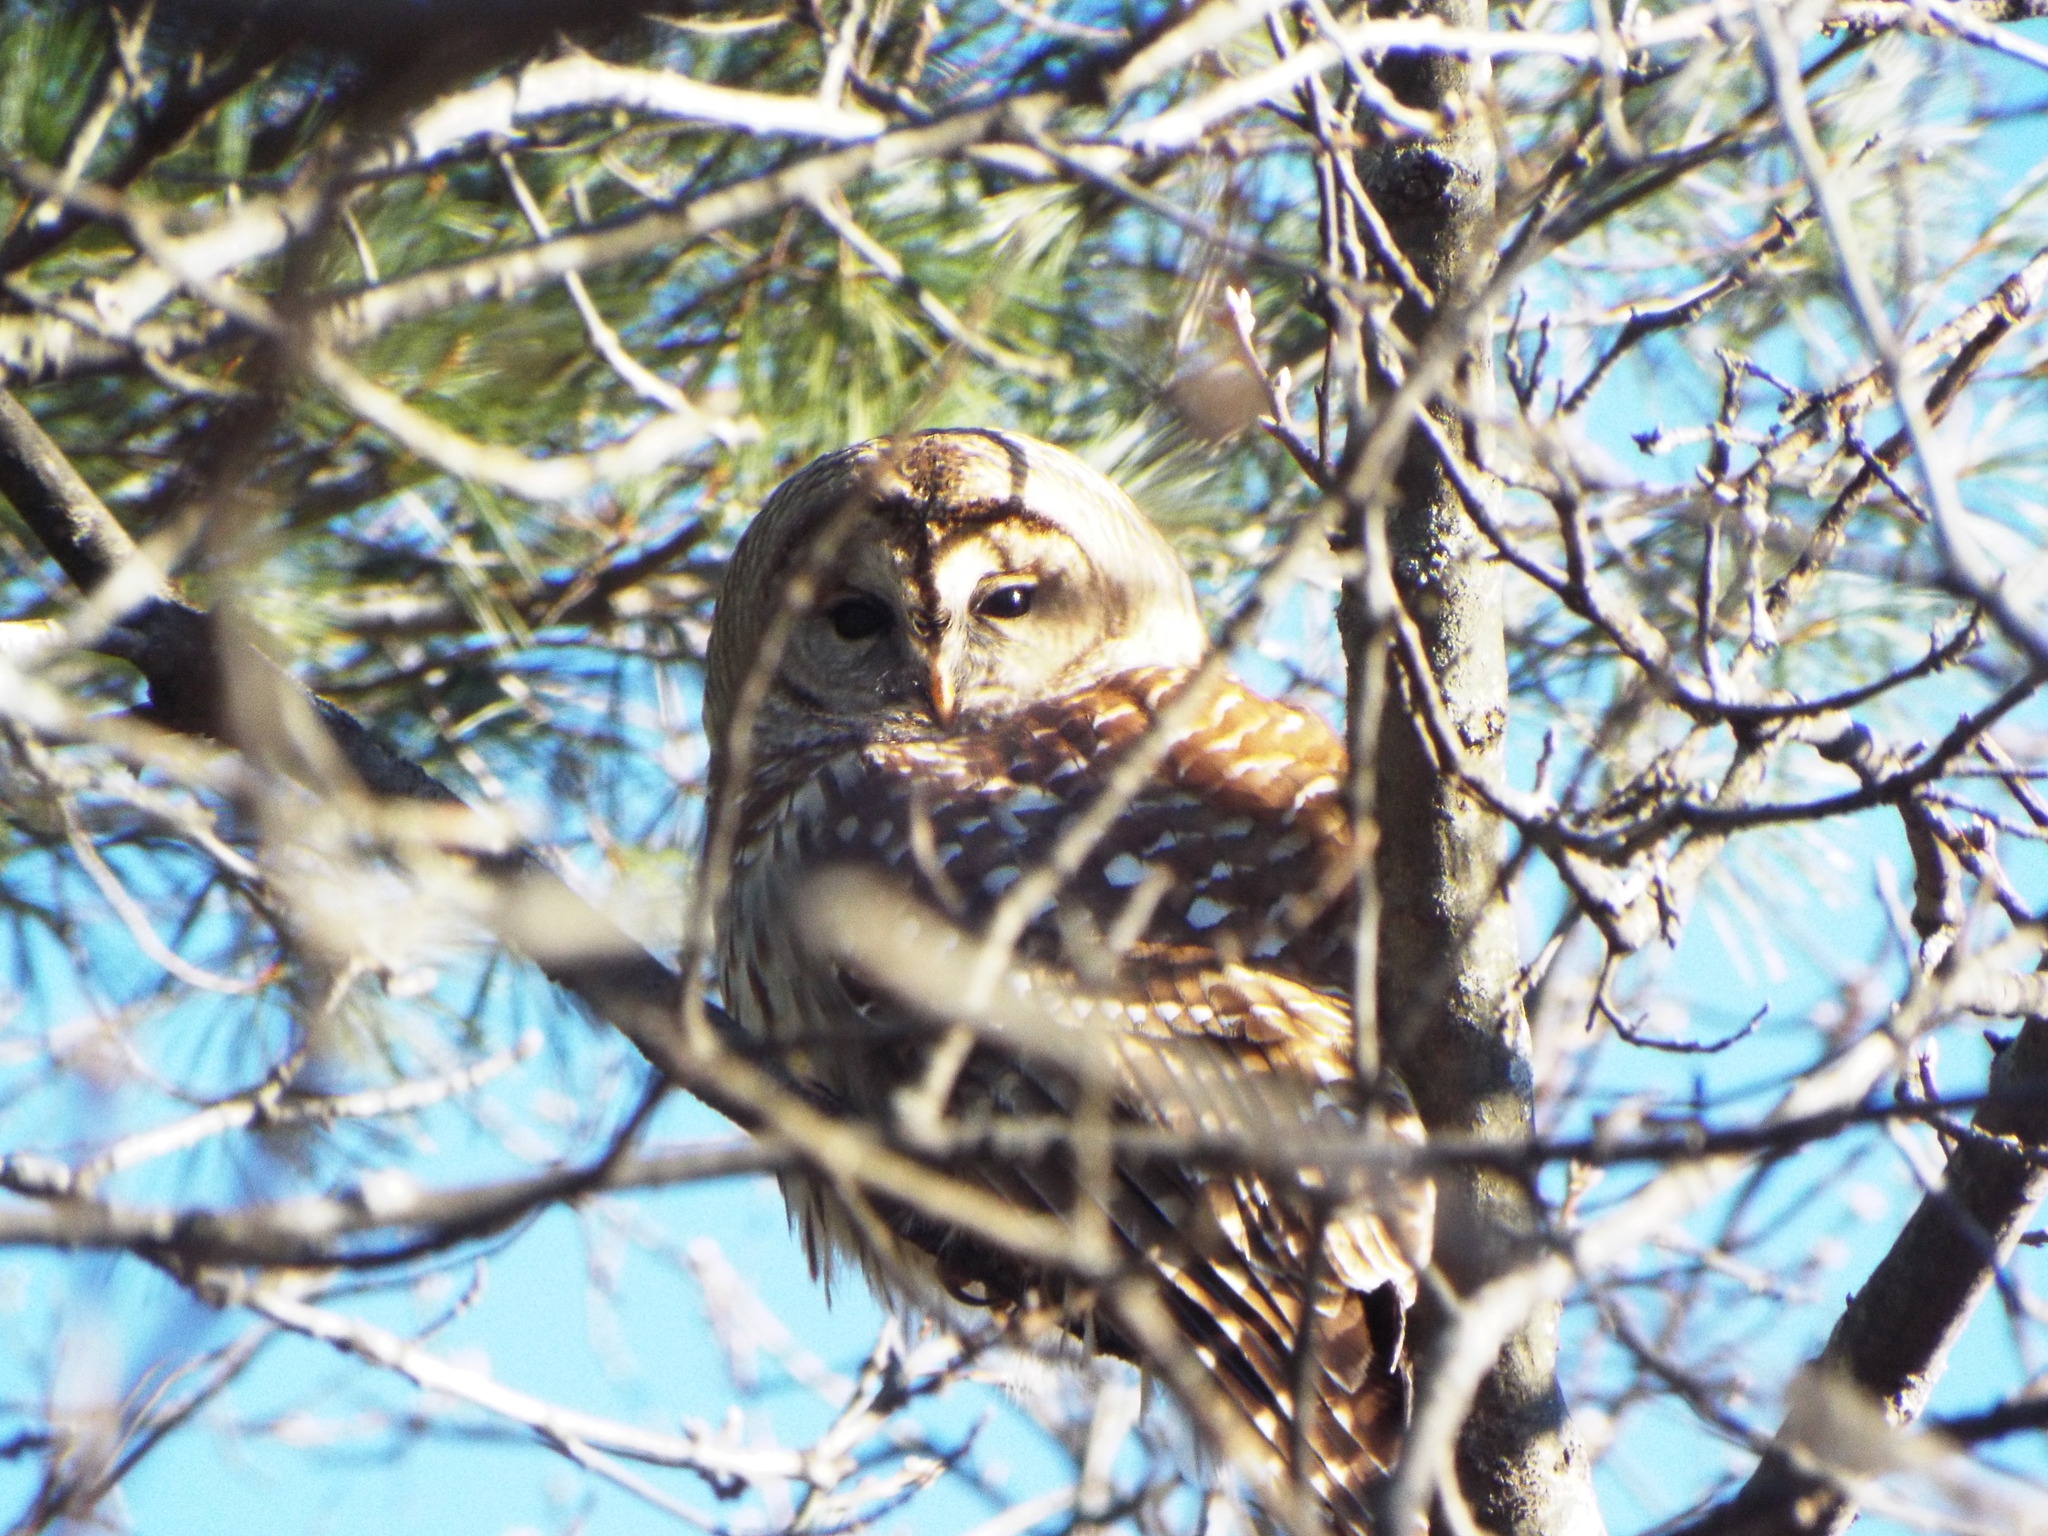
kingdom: Animalia
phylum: Chordata
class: Aves
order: Strigiformes
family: Strigidae
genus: Strix
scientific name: Strix varia
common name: Barred owl
